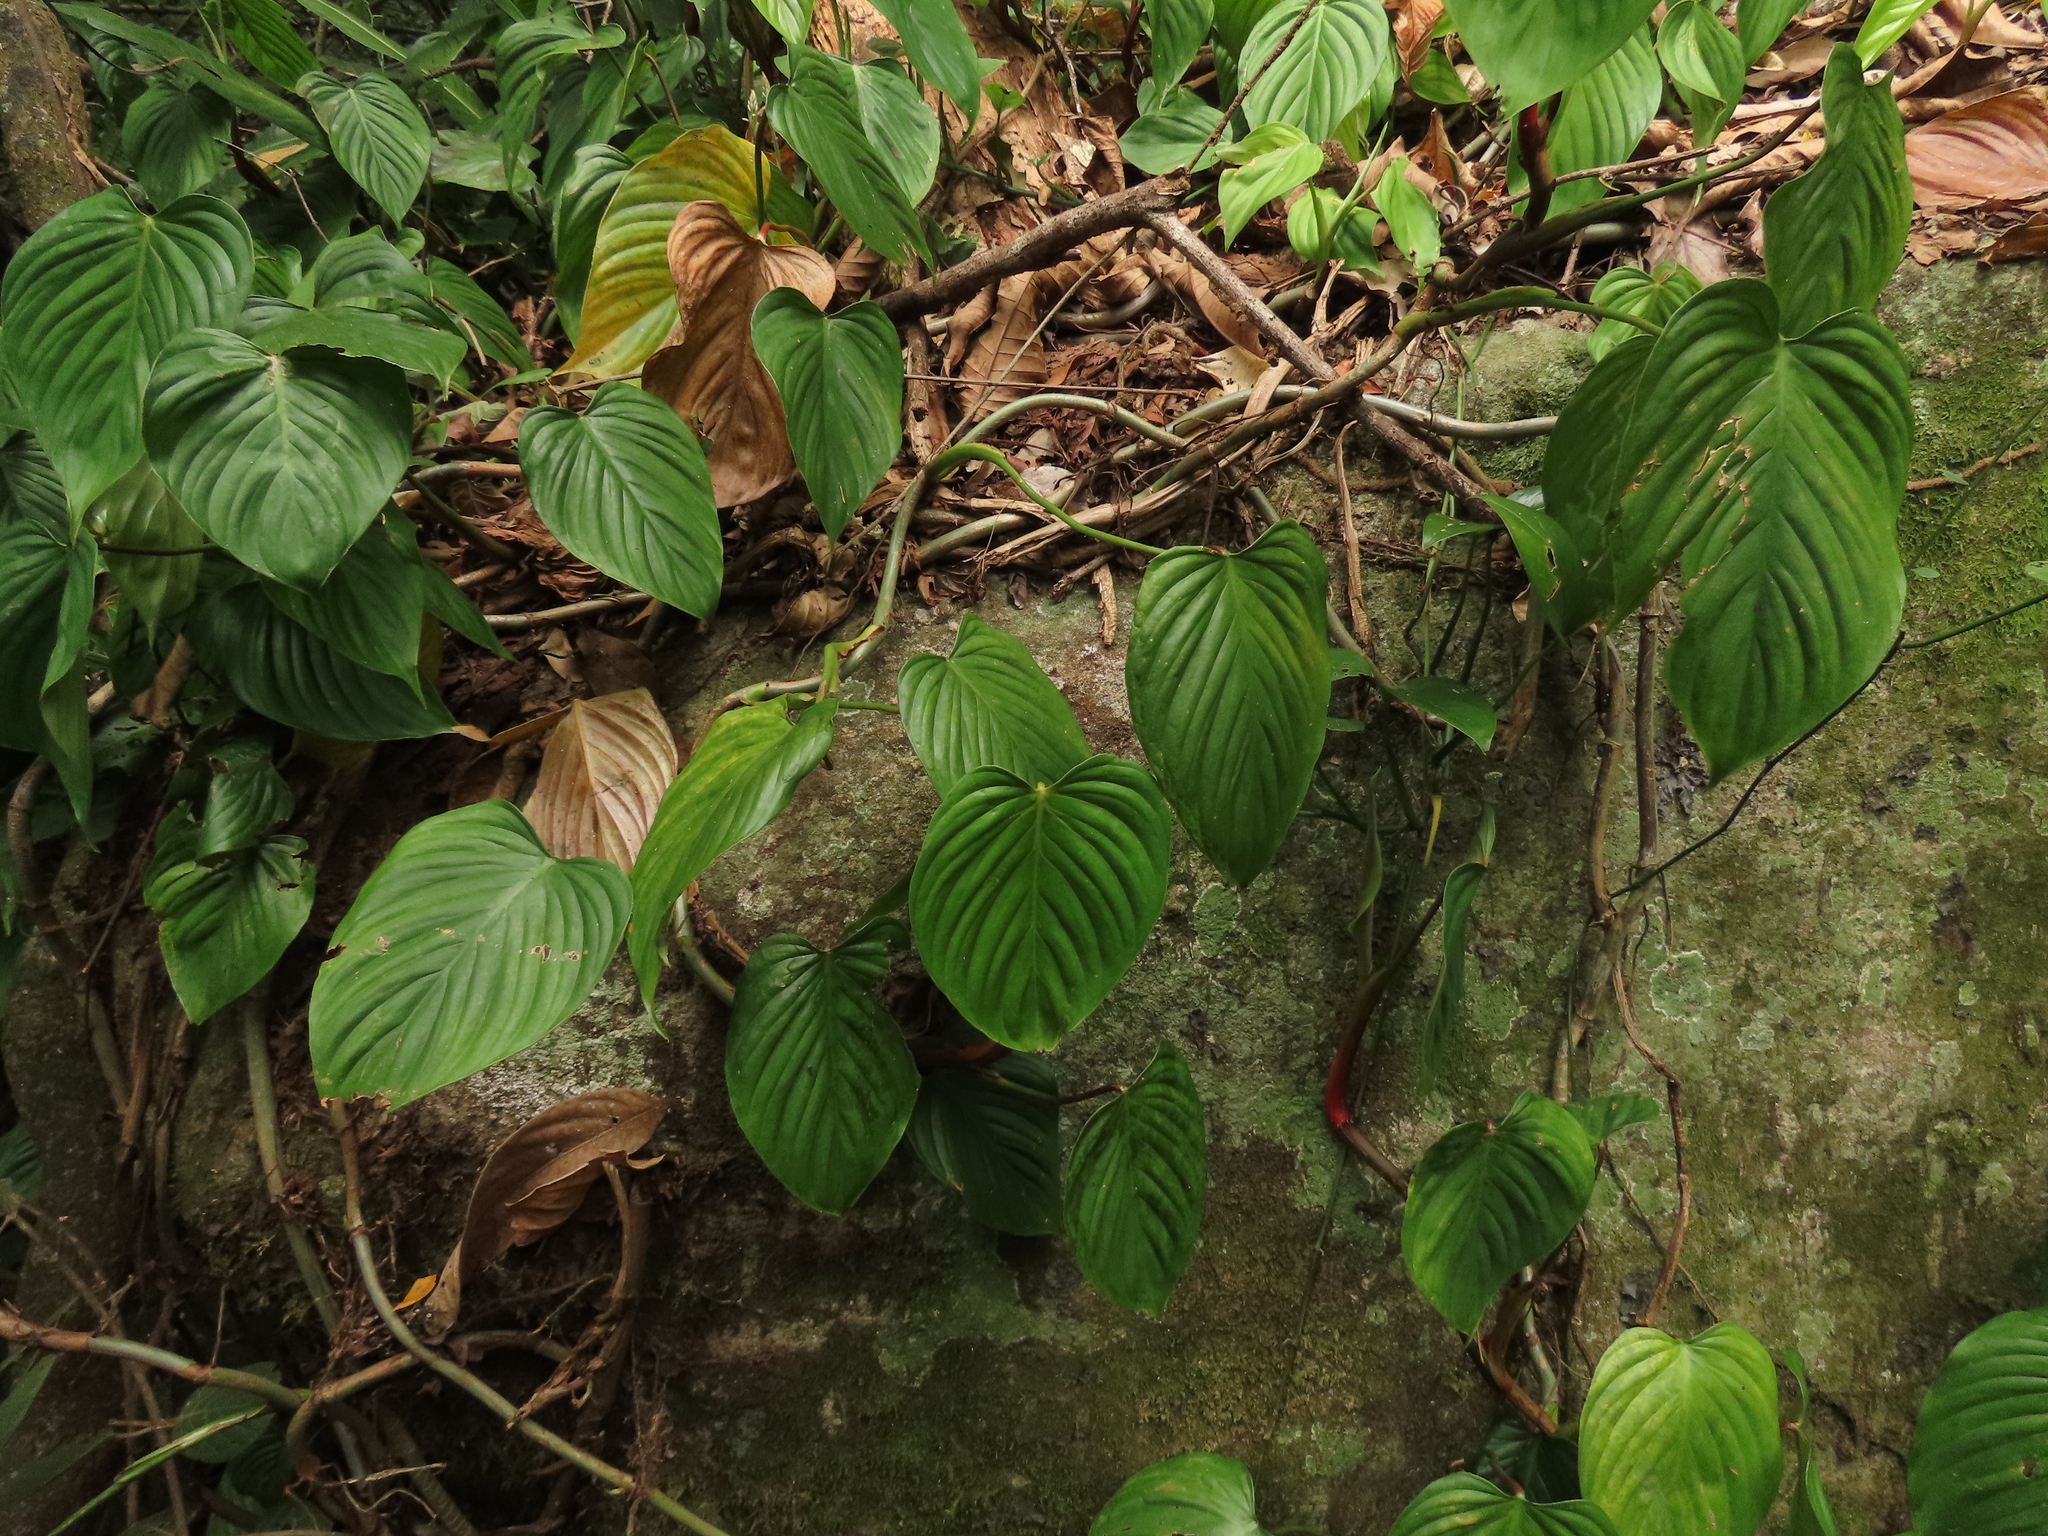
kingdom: Plantae
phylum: Tracheophyta
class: Liliopsida
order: Alismatales
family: Araceae
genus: Philodendron
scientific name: Philodendron eximium
